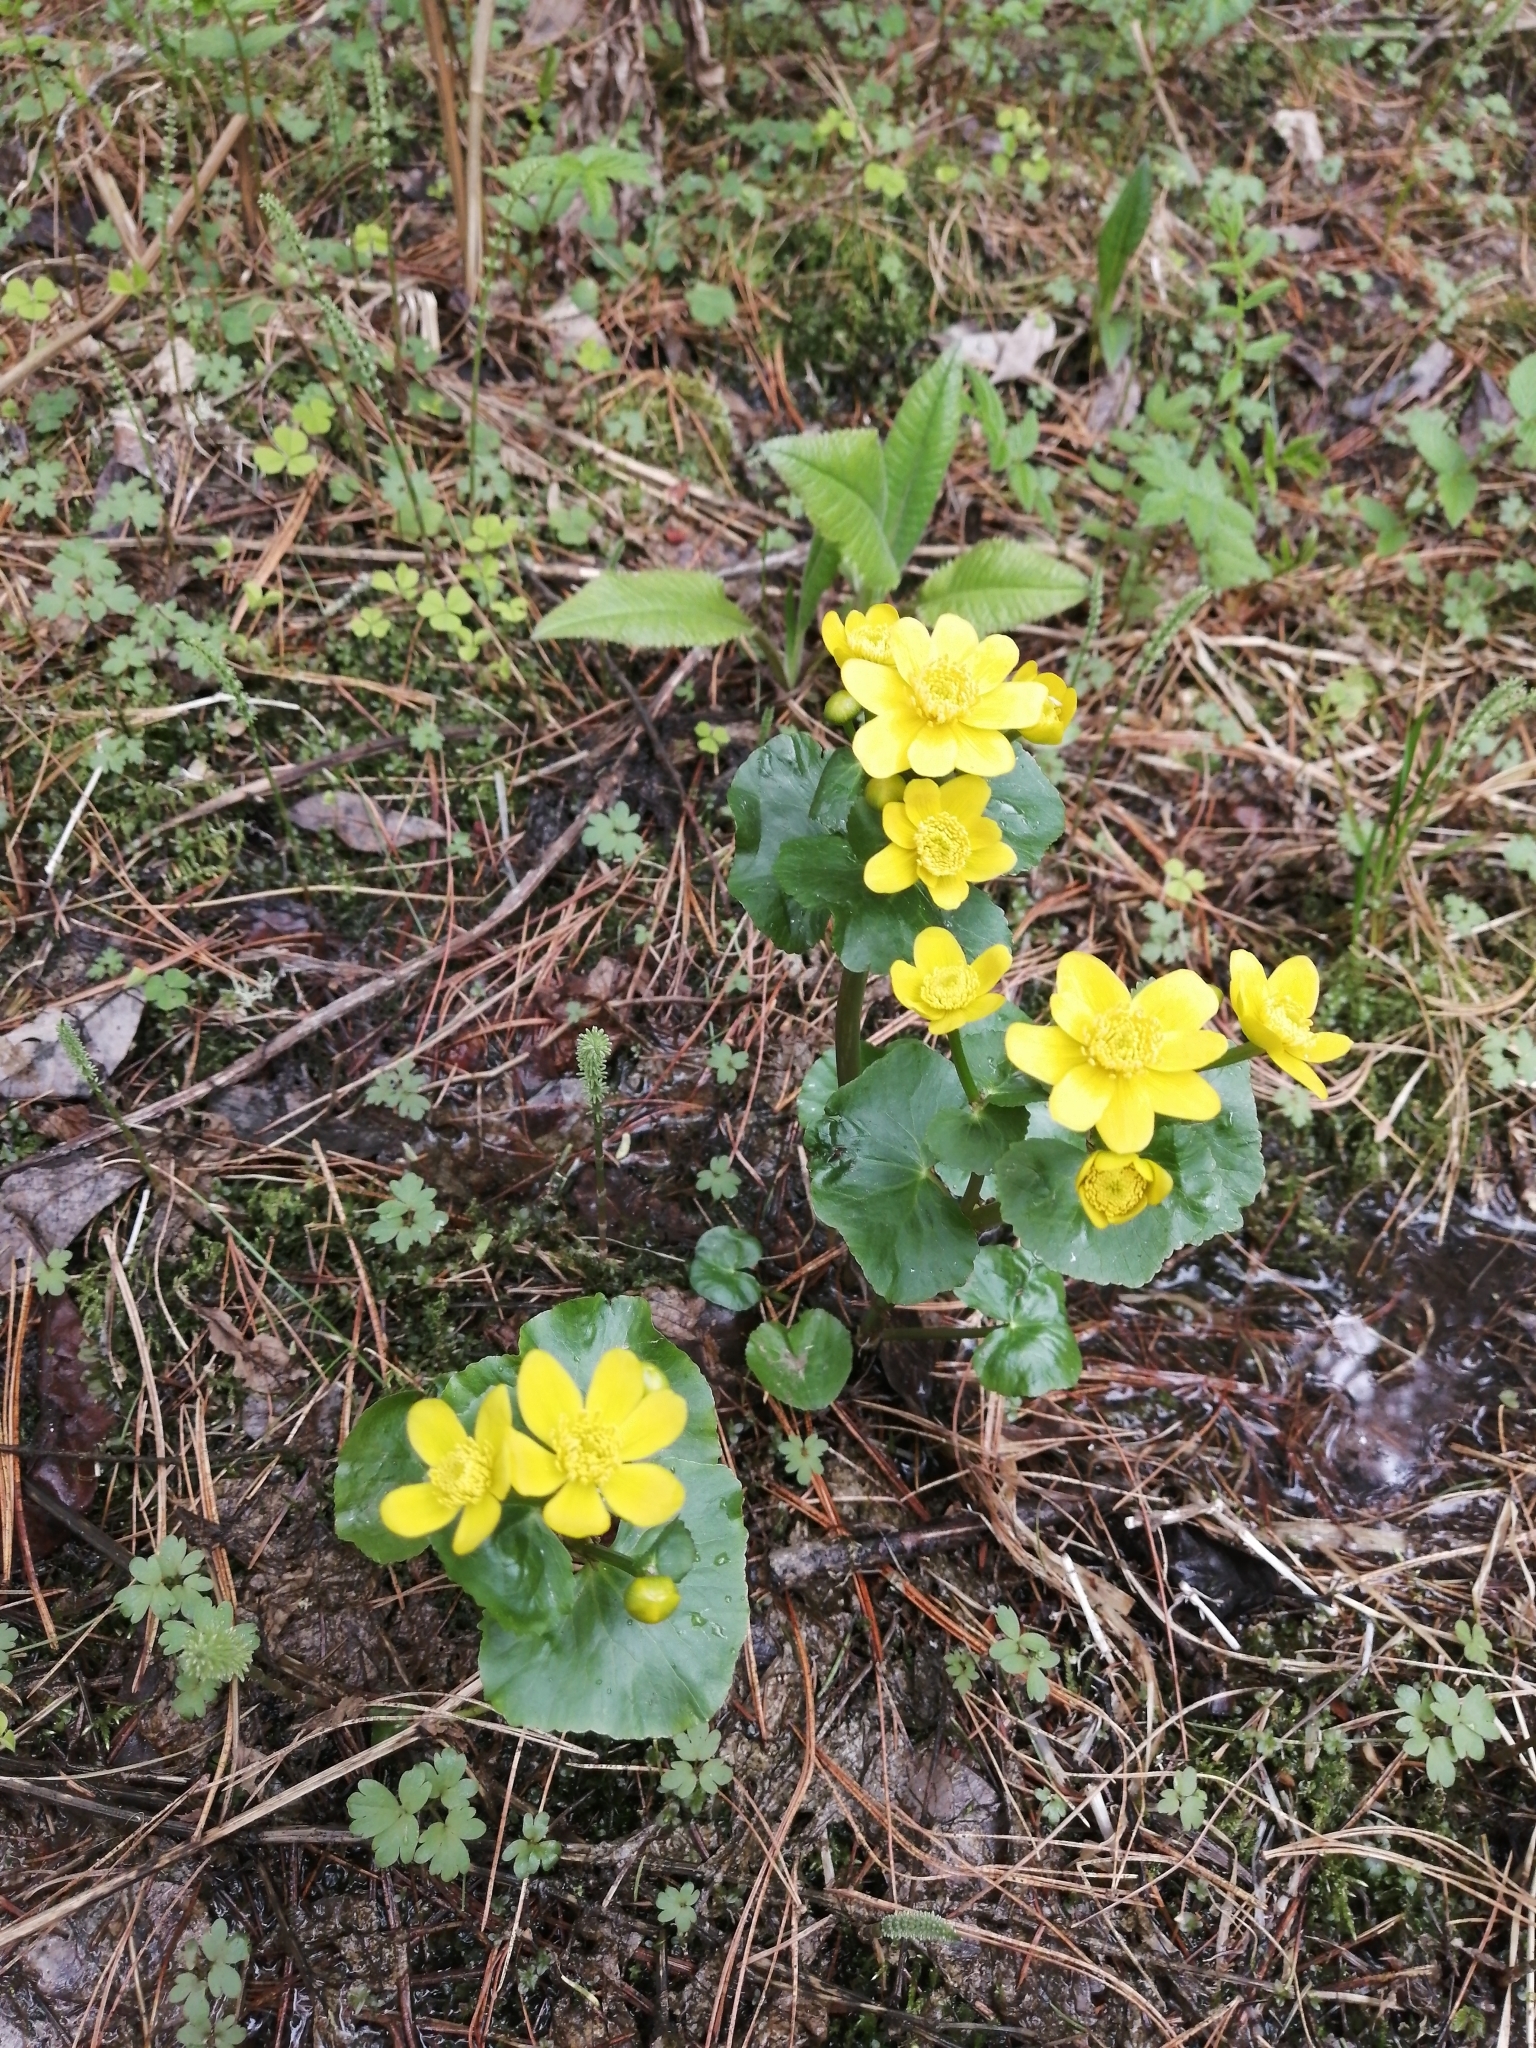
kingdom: Plantae
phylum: Tracheophyta
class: Magnoliopsida
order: Ranunculales
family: Ranunculaceae
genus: Caltha
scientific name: Caltha palustris
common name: Marsh marigold
